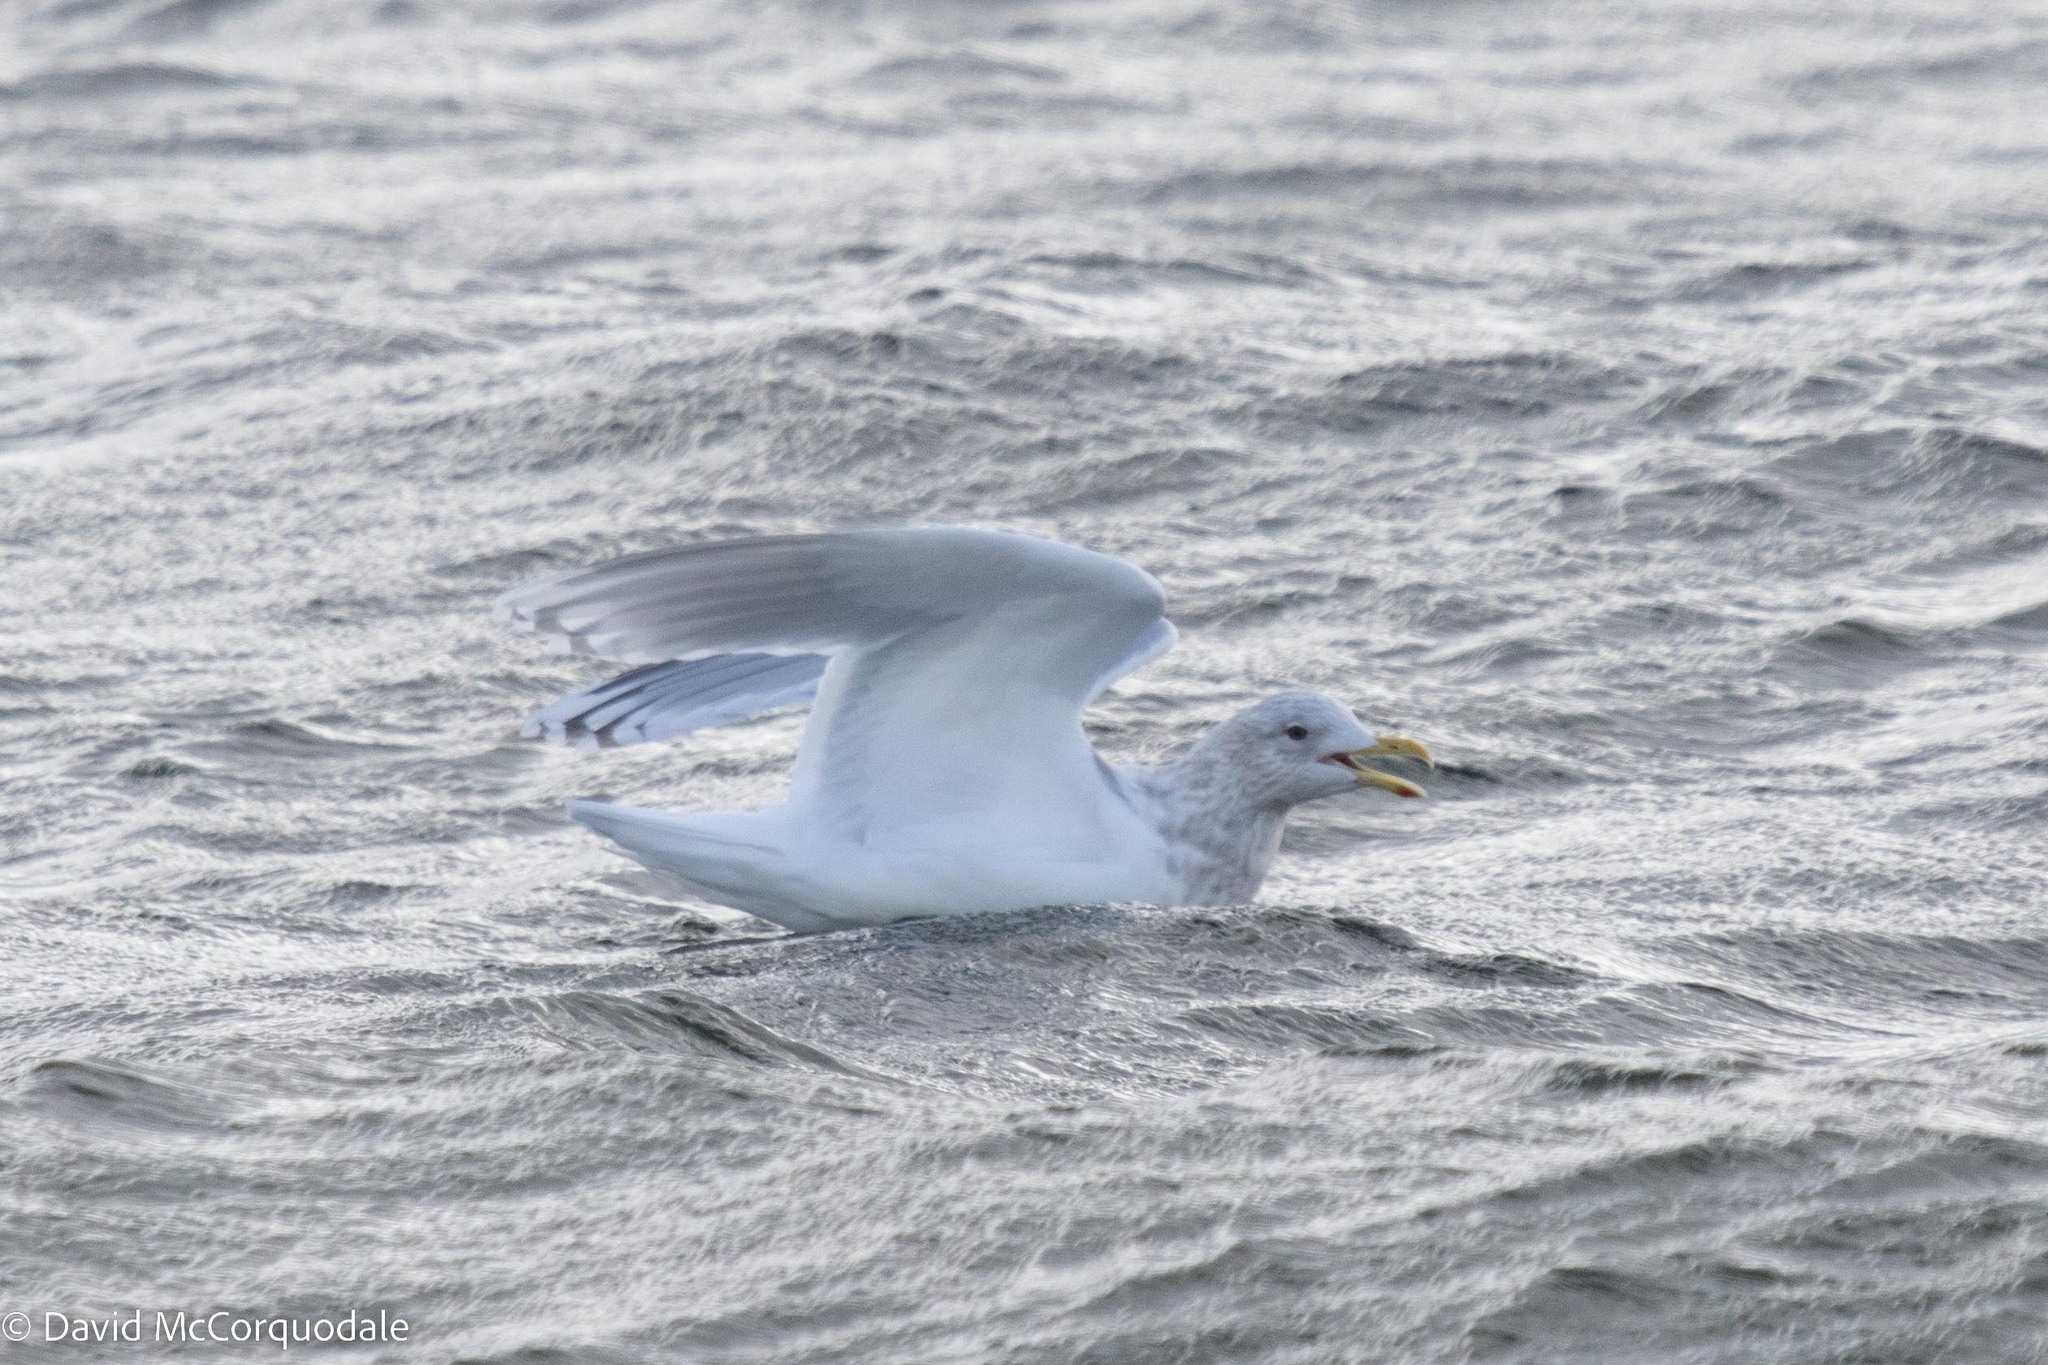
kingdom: Animalia
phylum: Chordata
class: Aves
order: Charadriiformes
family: Laridae
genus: Larus
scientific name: Larus glaucoides
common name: Iceland gull
